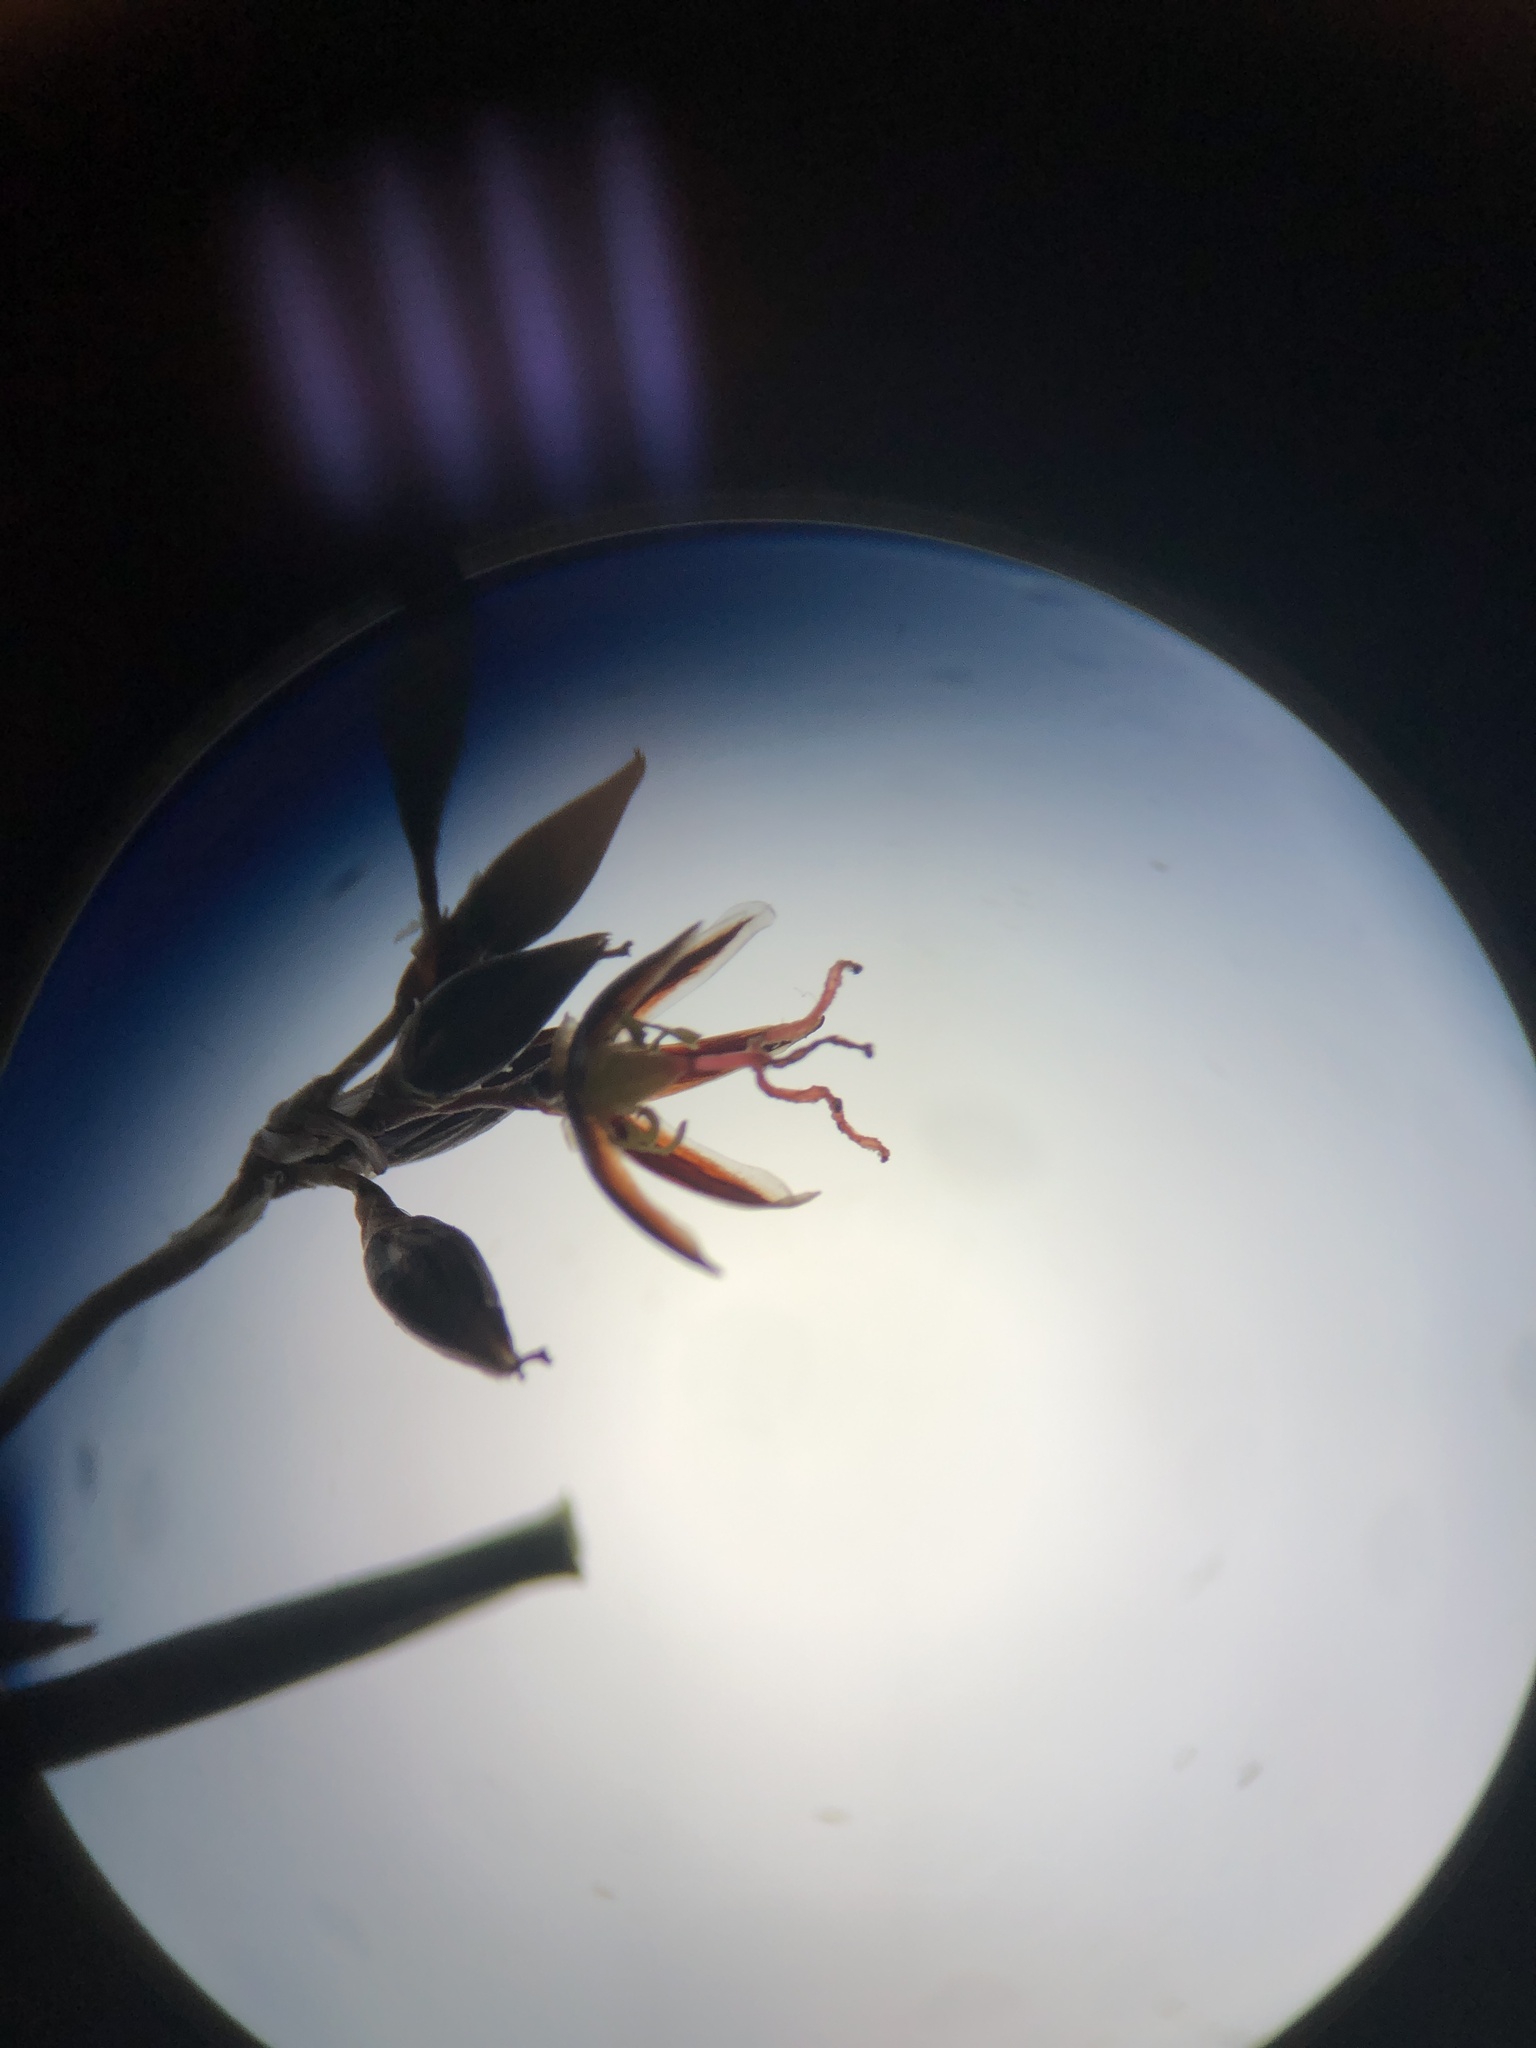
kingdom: Plantae
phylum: Tracheophyta
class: Liliopsida
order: Poales
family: Juncaceae
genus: Juncus
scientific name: Juncus balticus
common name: Baltic rush
